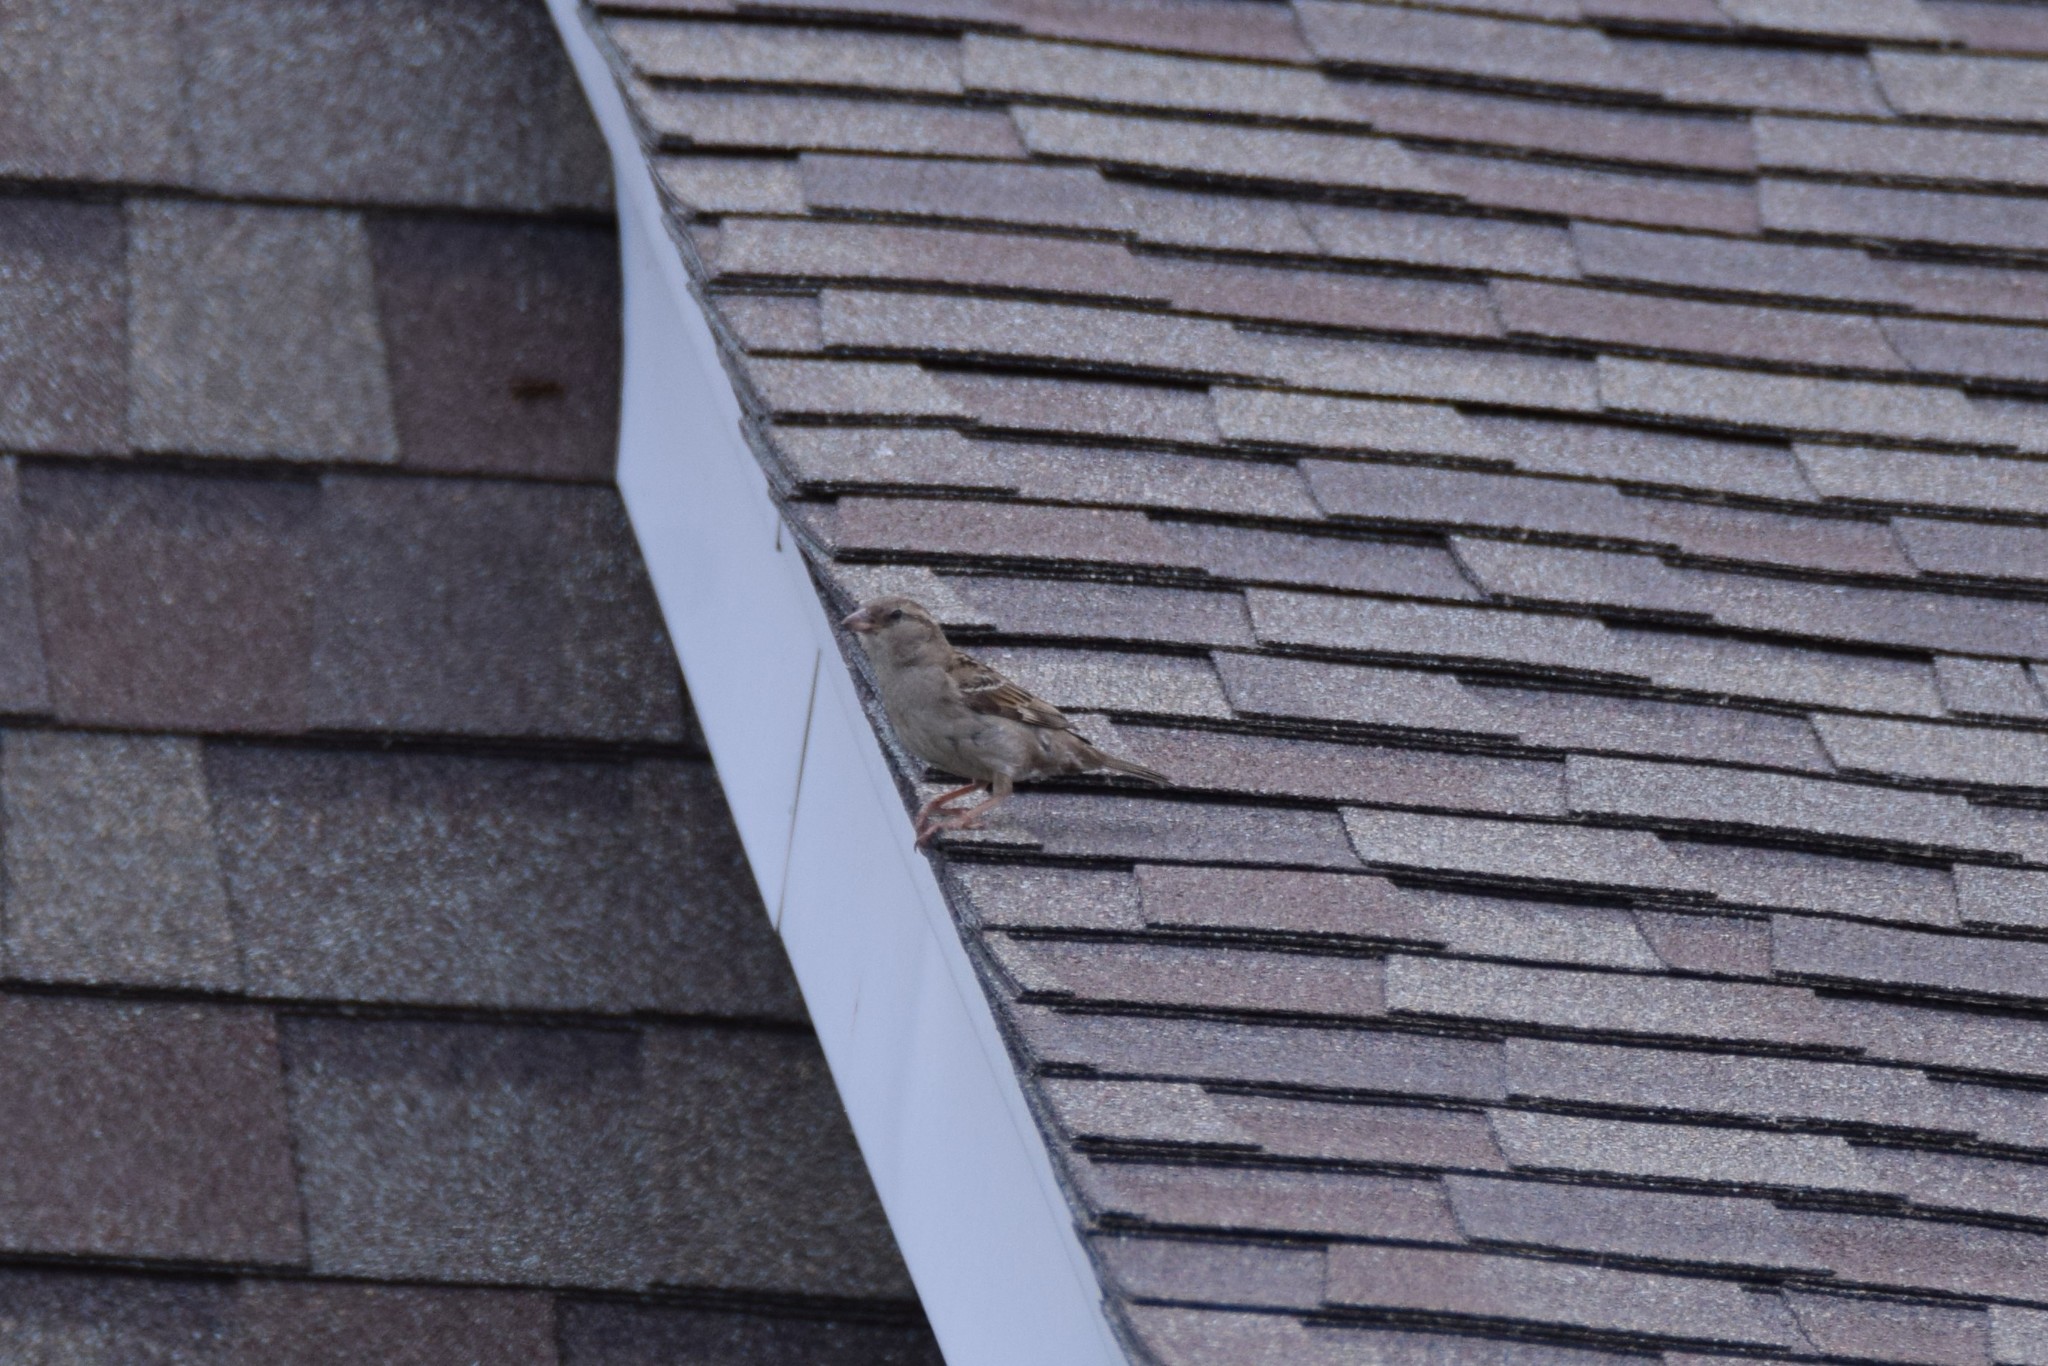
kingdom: Animalia
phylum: Chordata
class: Aves
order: Passeriformes
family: Passeridae
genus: Passer
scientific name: Passer domesticus
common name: House sparrow
